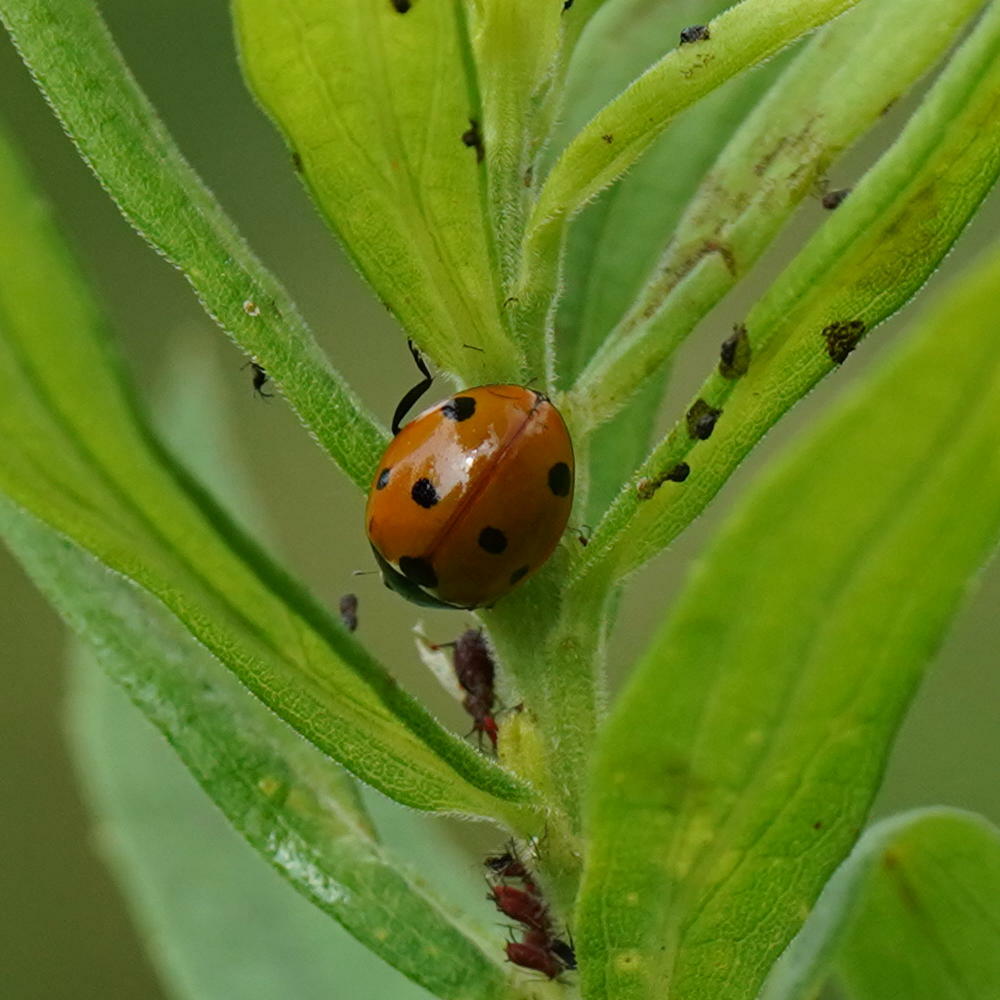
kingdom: Animalia
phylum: Arthropoda
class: Insecta
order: Coleoptera
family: Coccinellidae
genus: Coccinella
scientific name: Coccinella septempunctata
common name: Sevenspotted lady beetle
